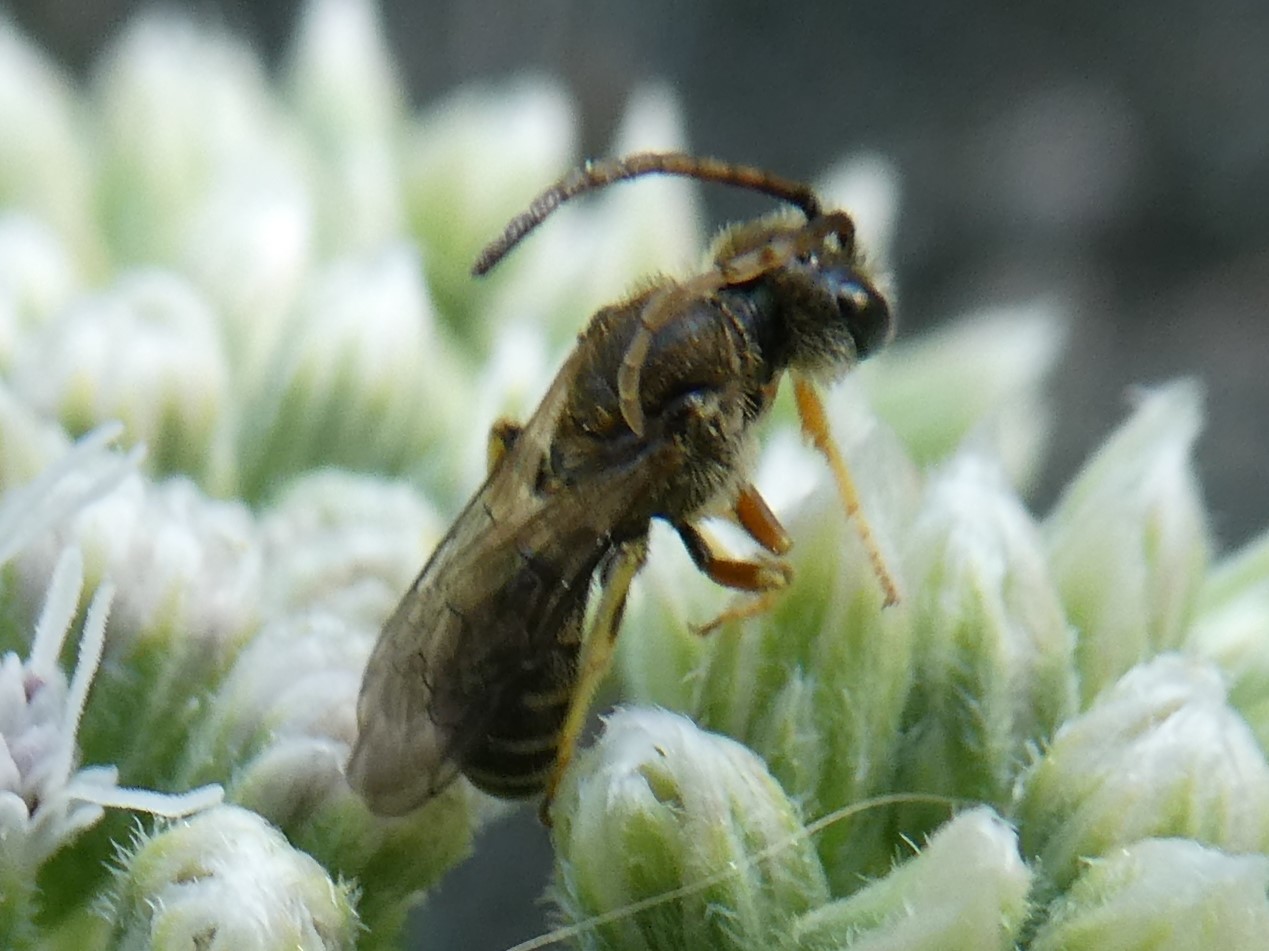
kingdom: Animalia
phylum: Arthropoda
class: Insecta
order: Hymenoptera
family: Halictidae
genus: Halictus
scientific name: Halictus confusus
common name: Southern bronze furrow bee
